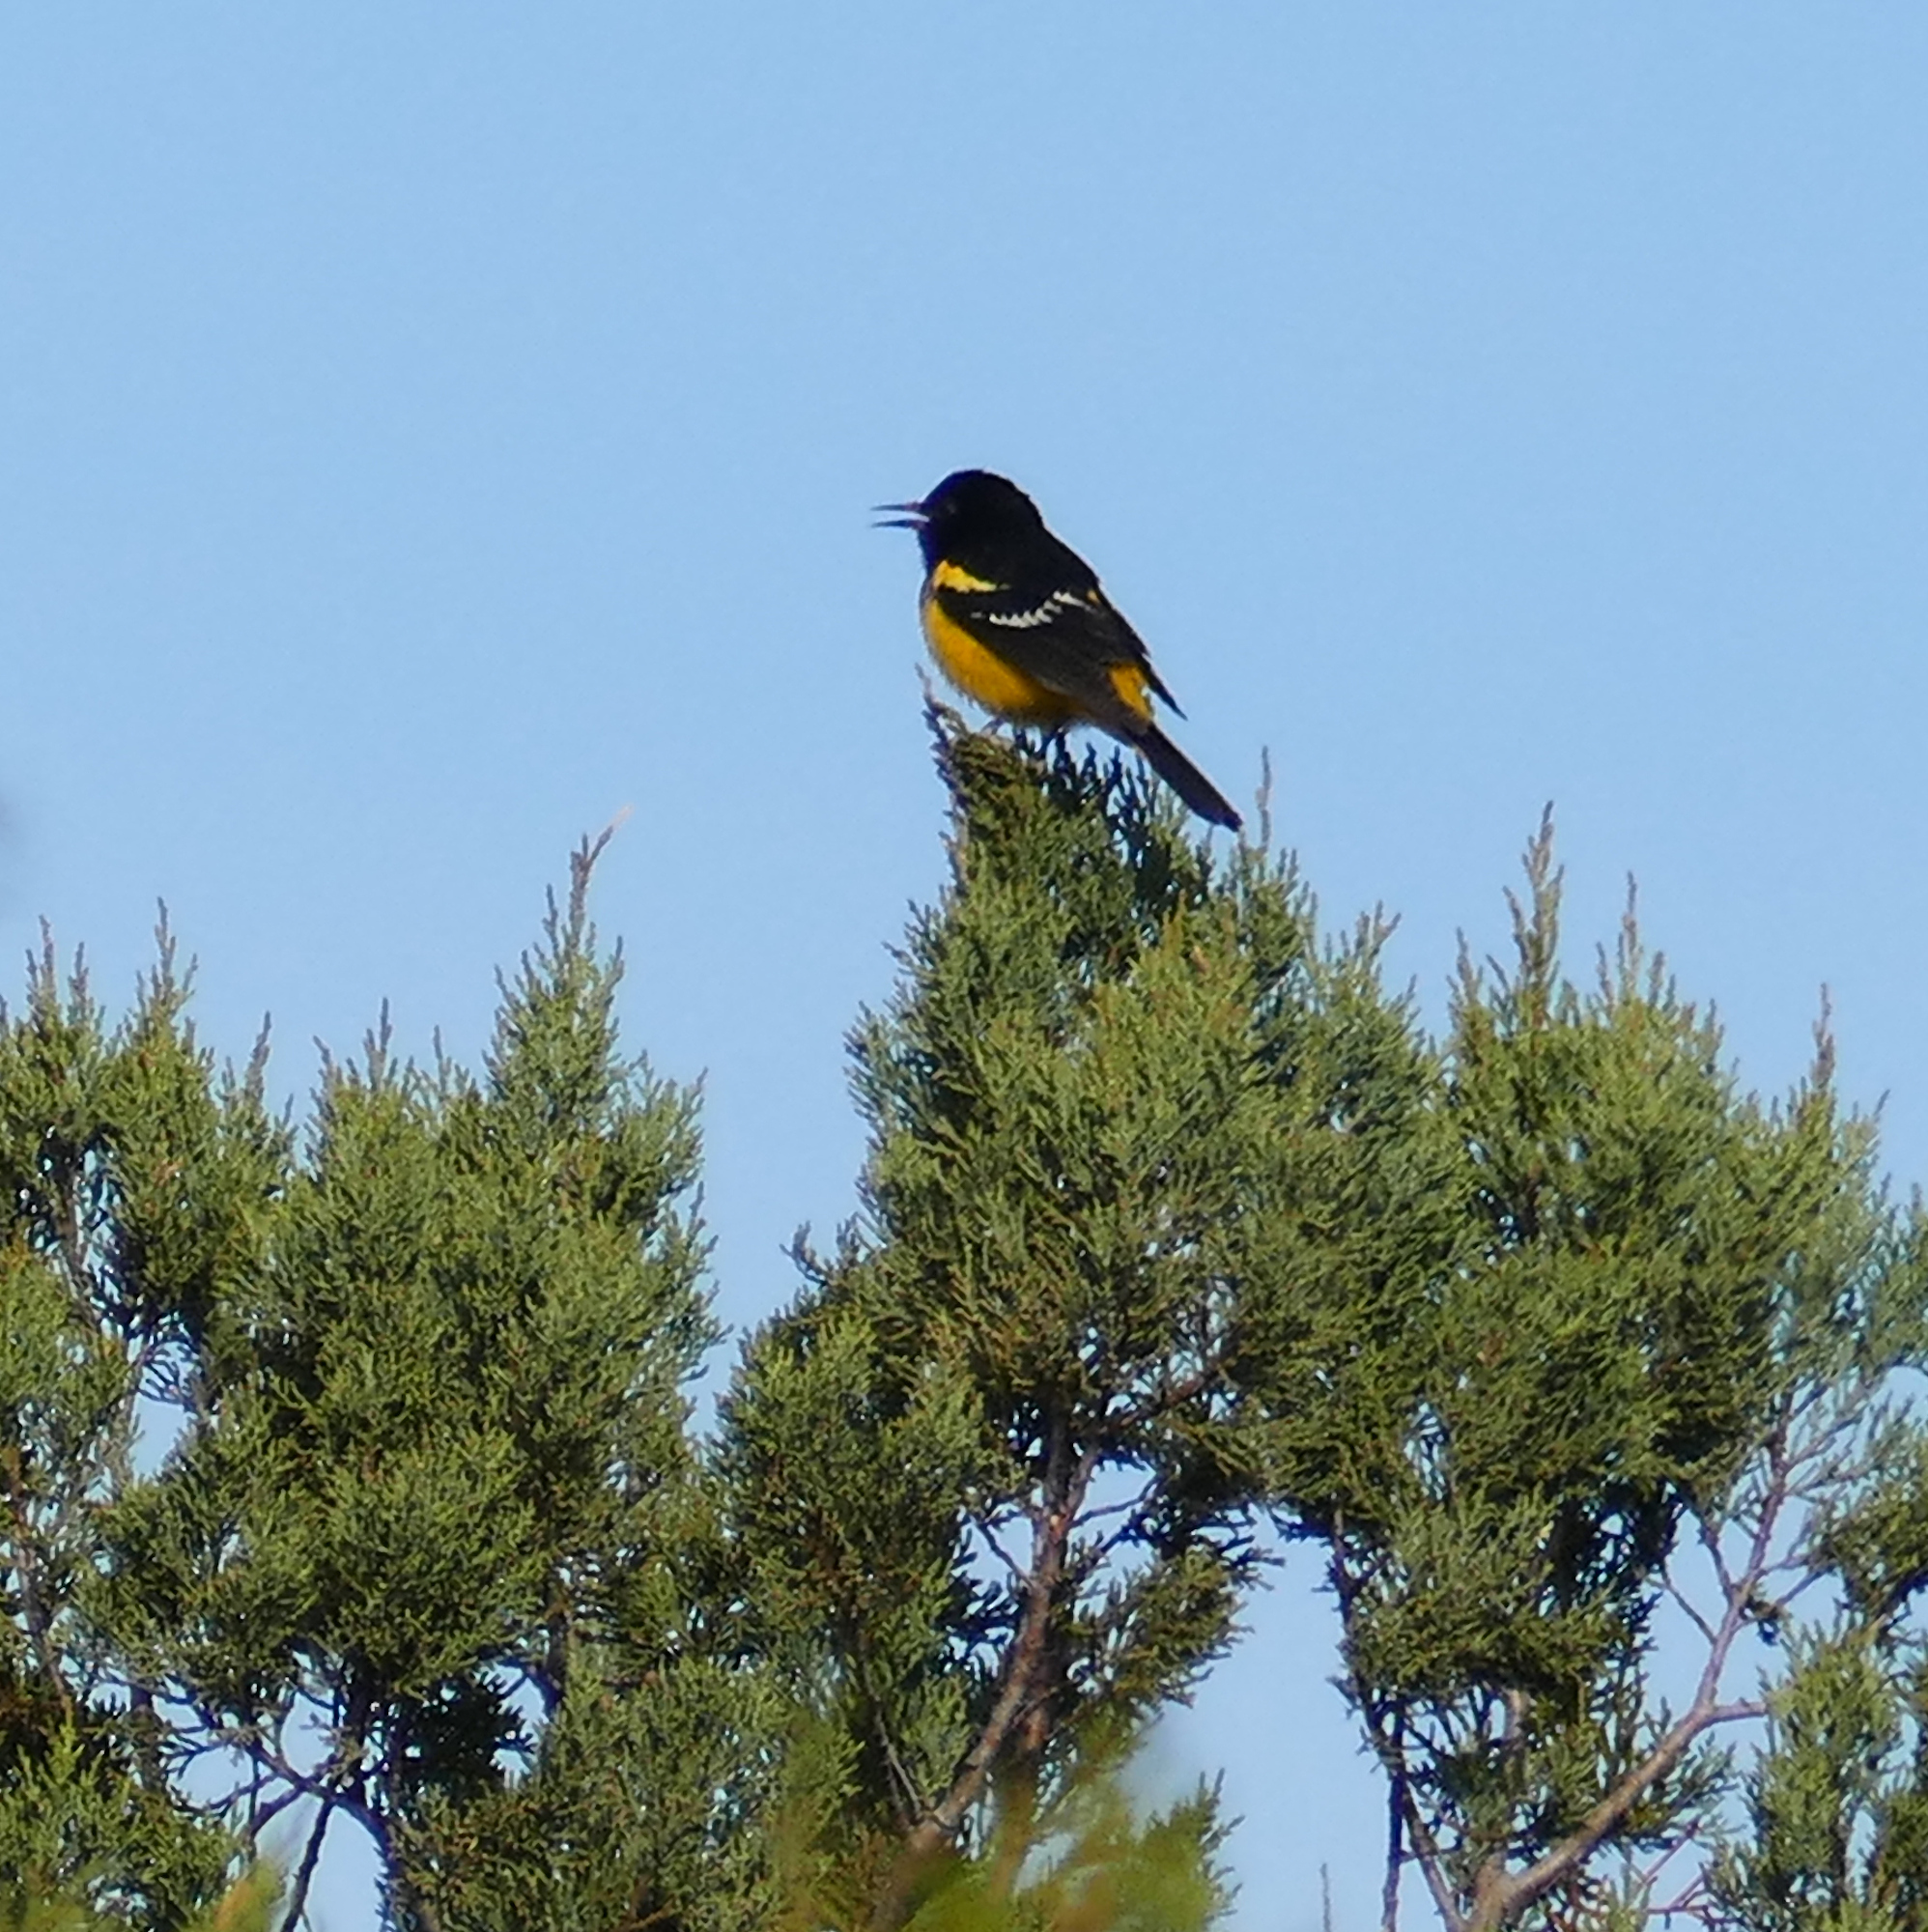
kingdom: Animalia
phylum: Chordata
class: Aves
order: Passeriformes
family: Icteridae
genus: Icterus
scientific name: Icterus parisorum
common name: Scott's oriole
